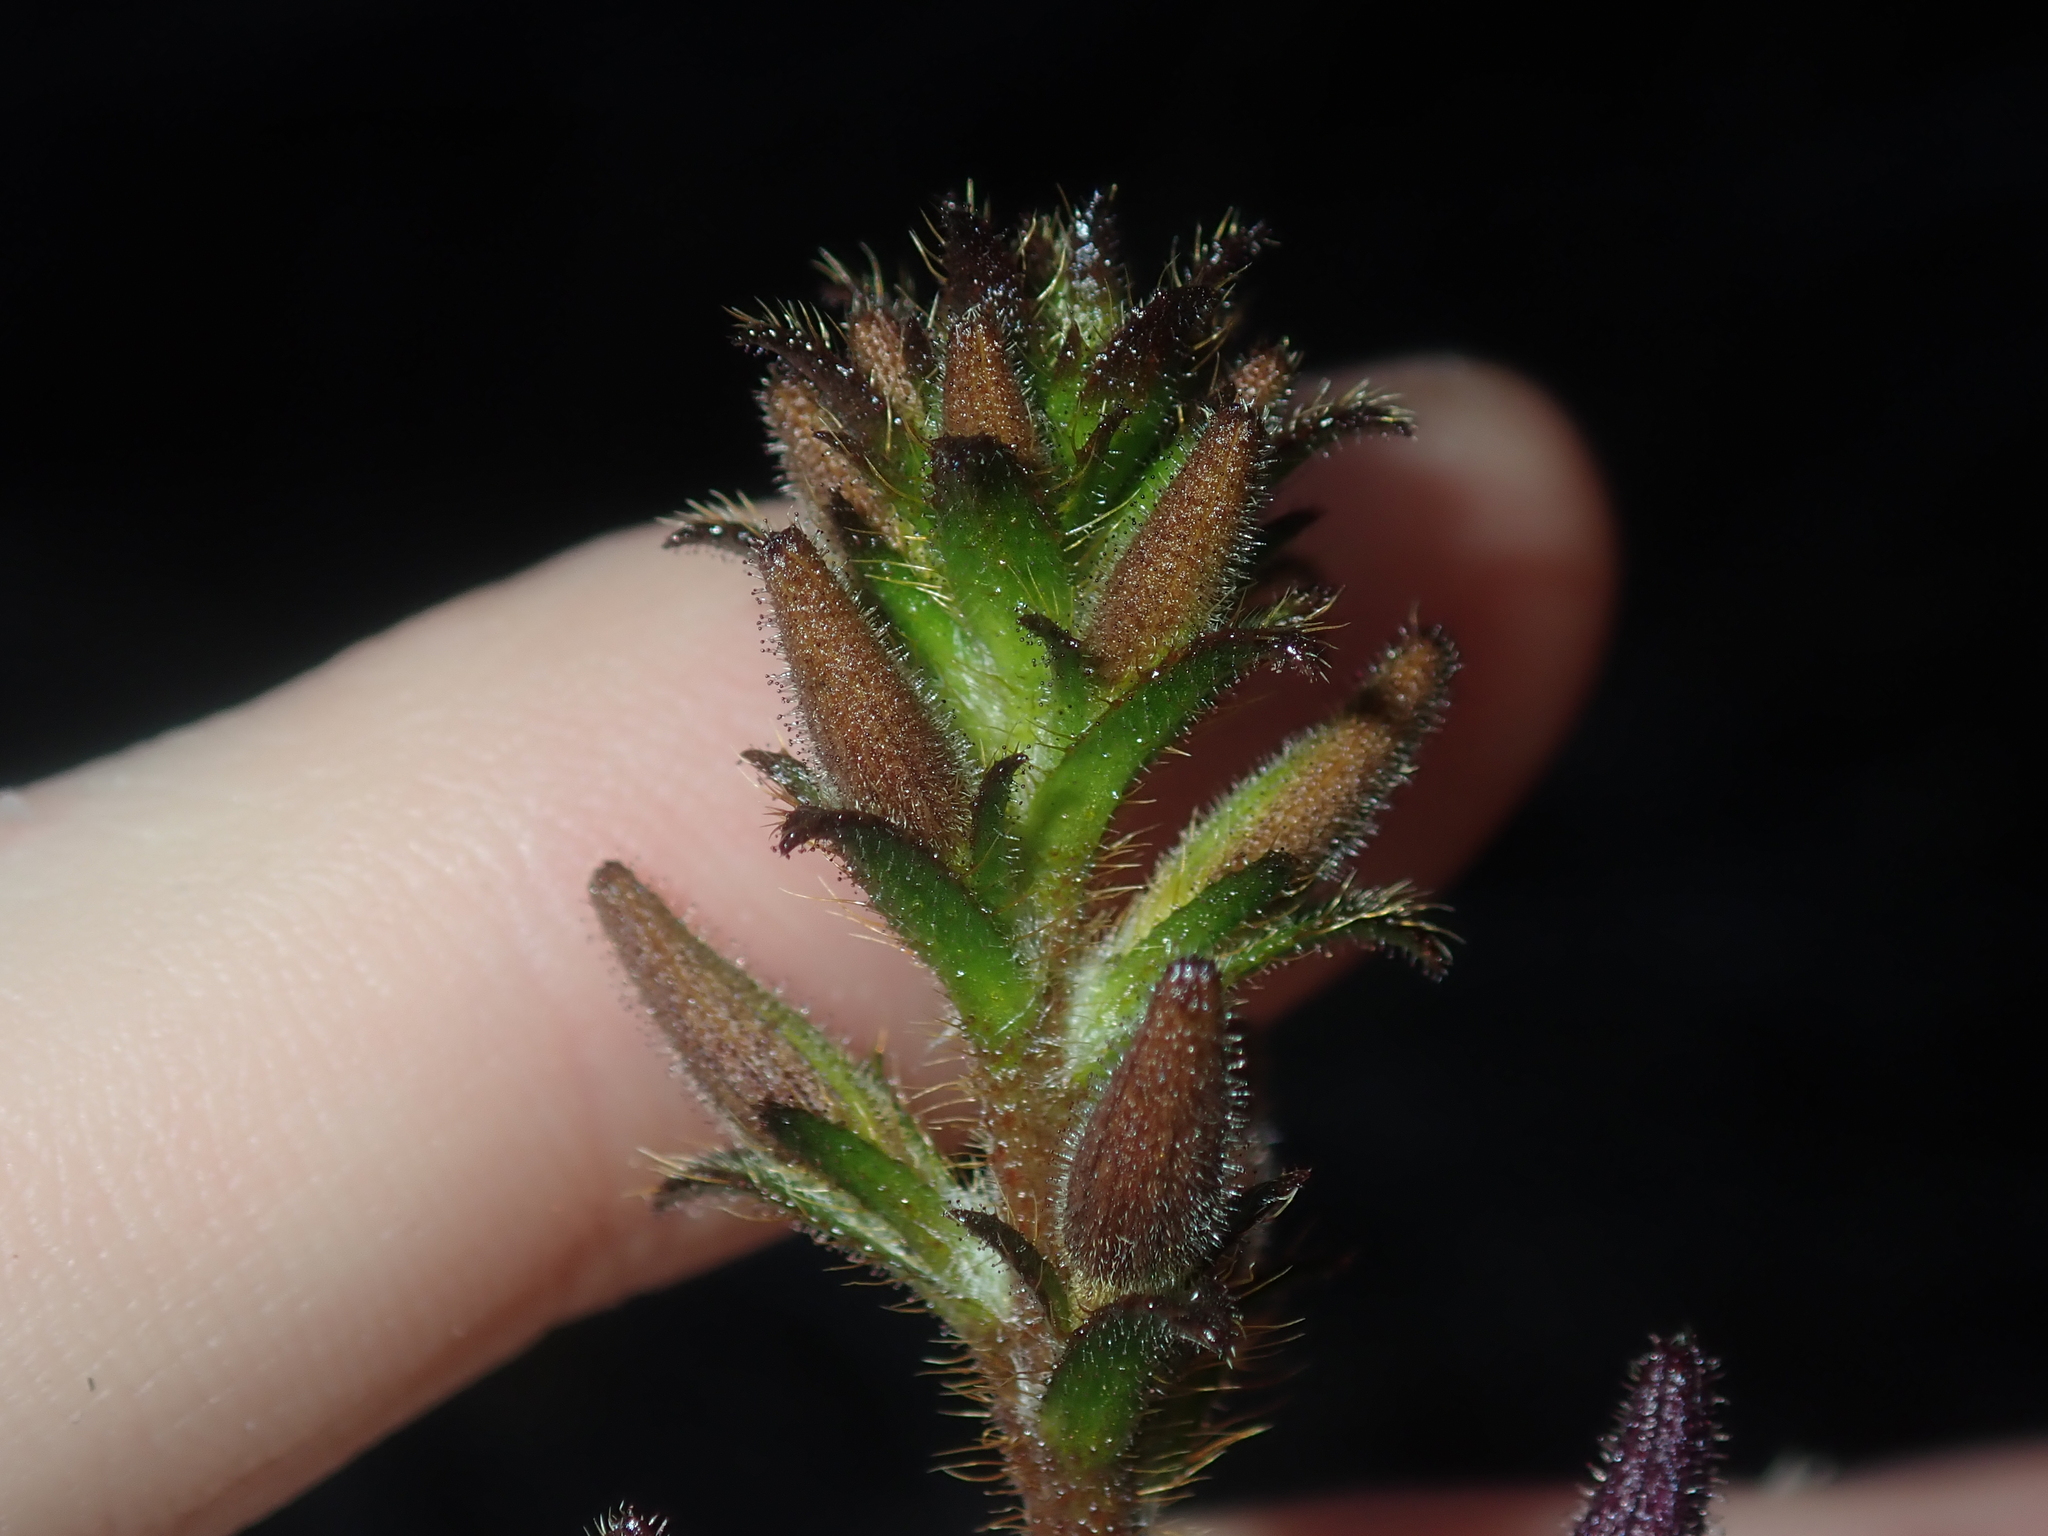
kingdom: Plantae
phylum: Tracheophyta
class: Magnoliopsida
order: Asterales
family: Goodeniaceae
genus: Scaevola
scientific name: Scaevola glandulifera
